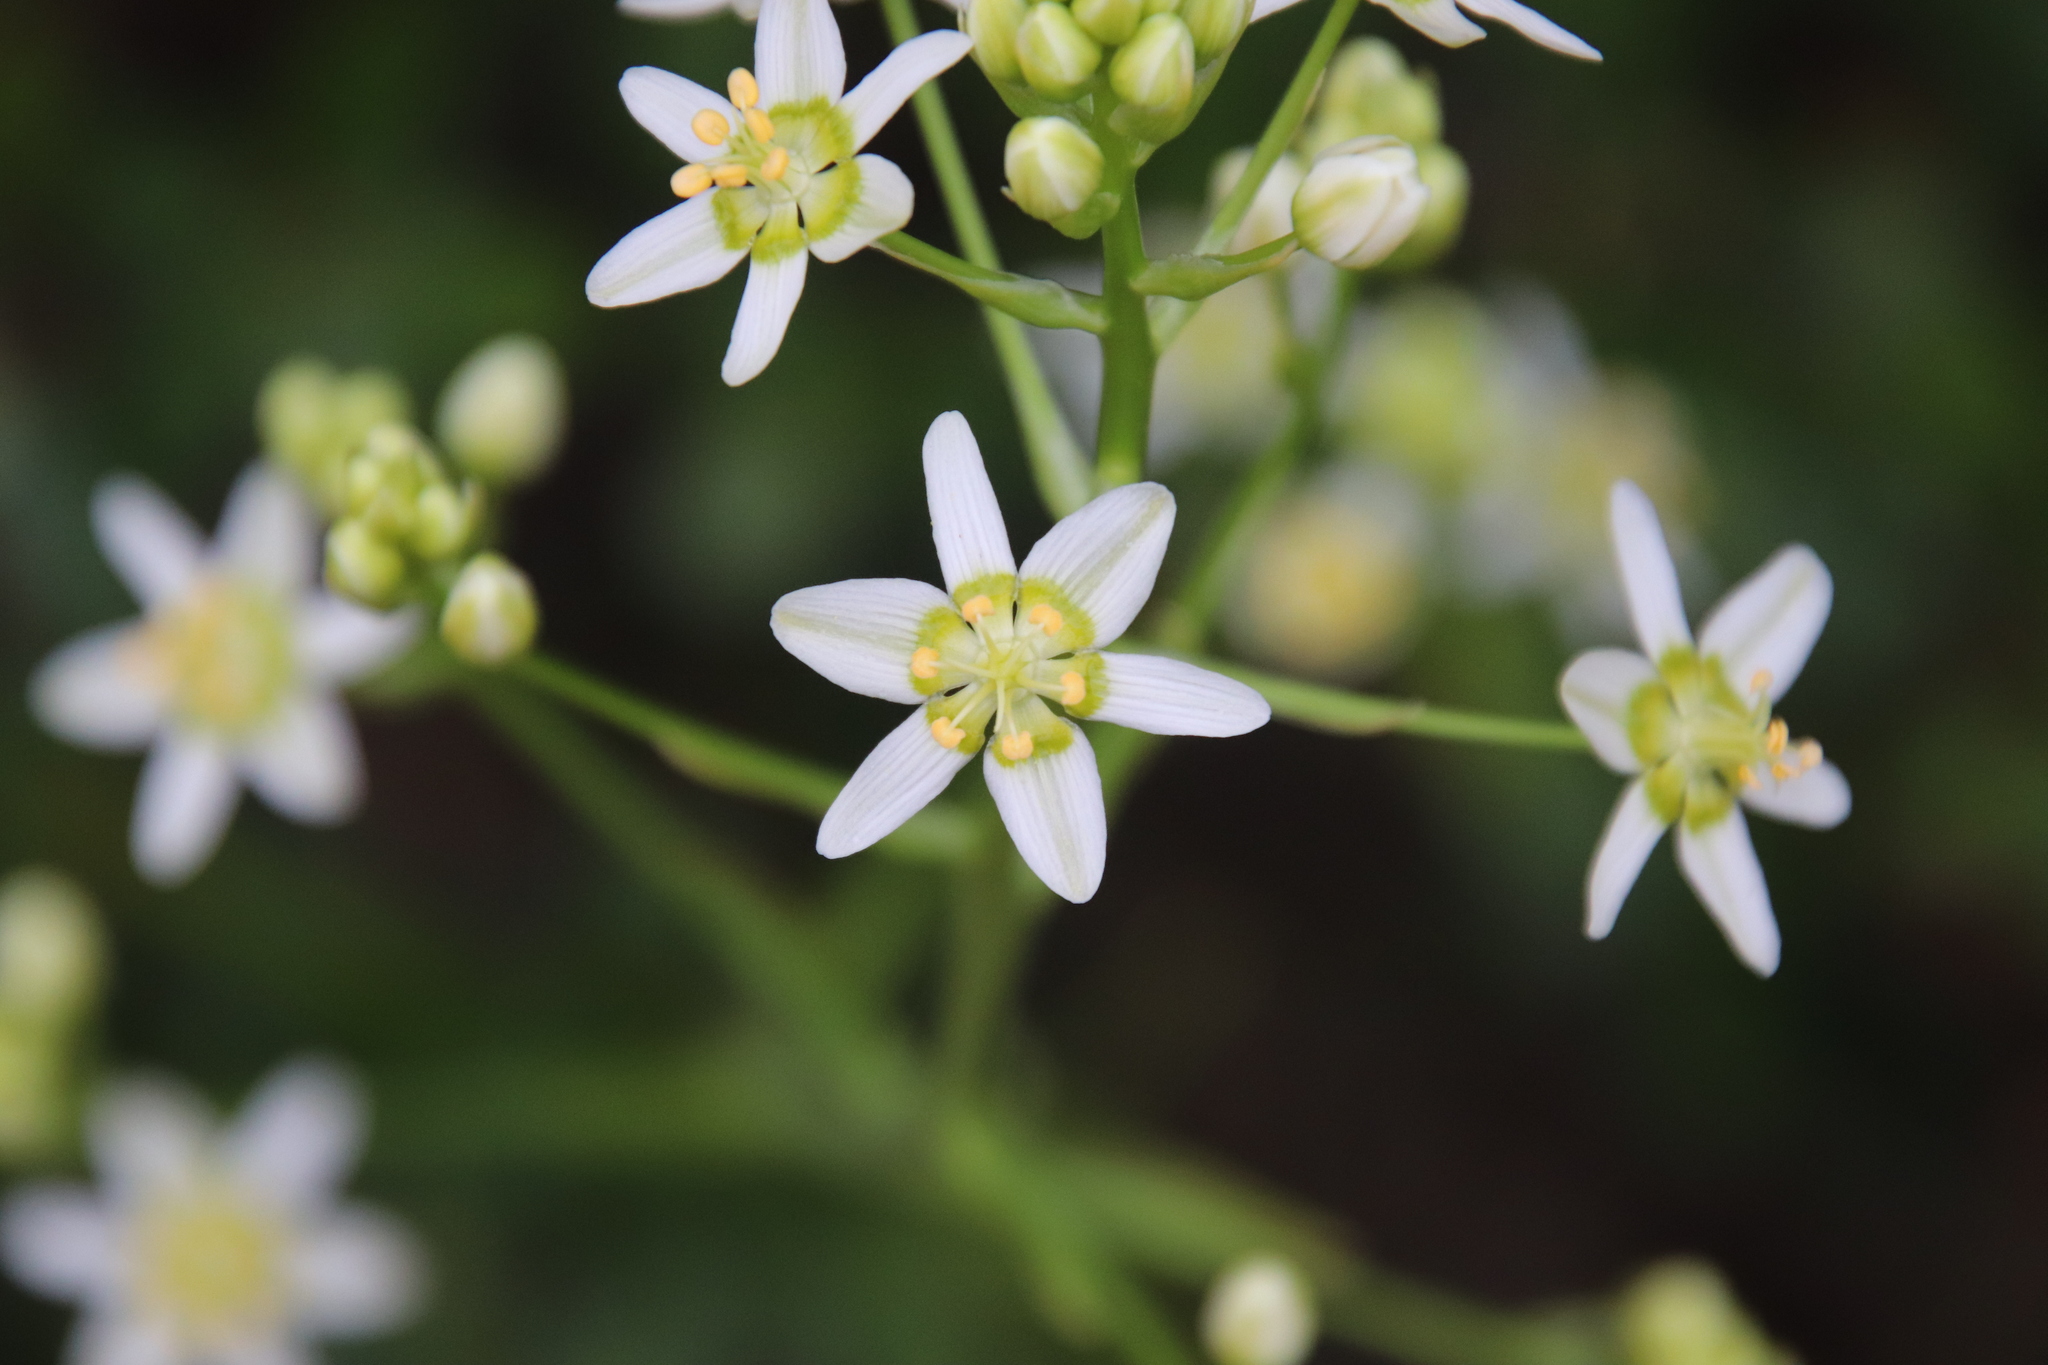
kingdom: Plantae
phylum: Tracheophyta
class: Liliopsida
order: Liliales
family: Melanthiaceae
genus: Toxicoscordion
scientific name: Toxicoscordion fremontii
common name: Fremont's death camas
